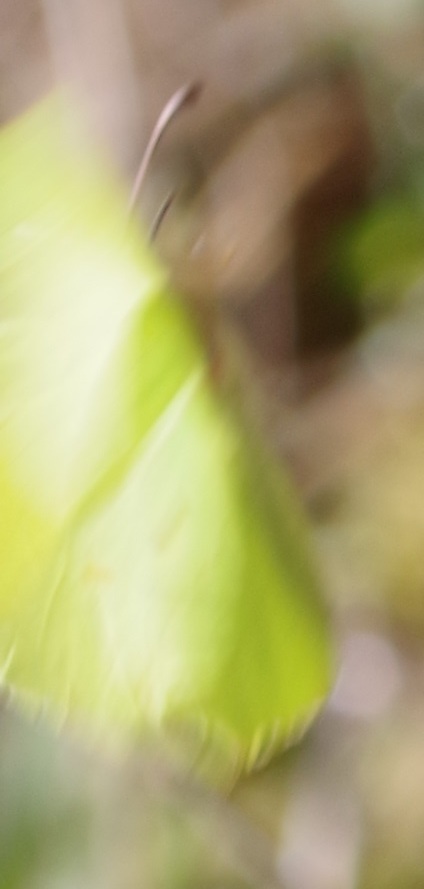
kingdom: Animalia
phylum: Arthropoda
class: Insecta
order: Lepidoptera
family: Pieridae
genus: Gonepteryx
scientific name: Gonepteryx rhamni
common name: Brimstone
